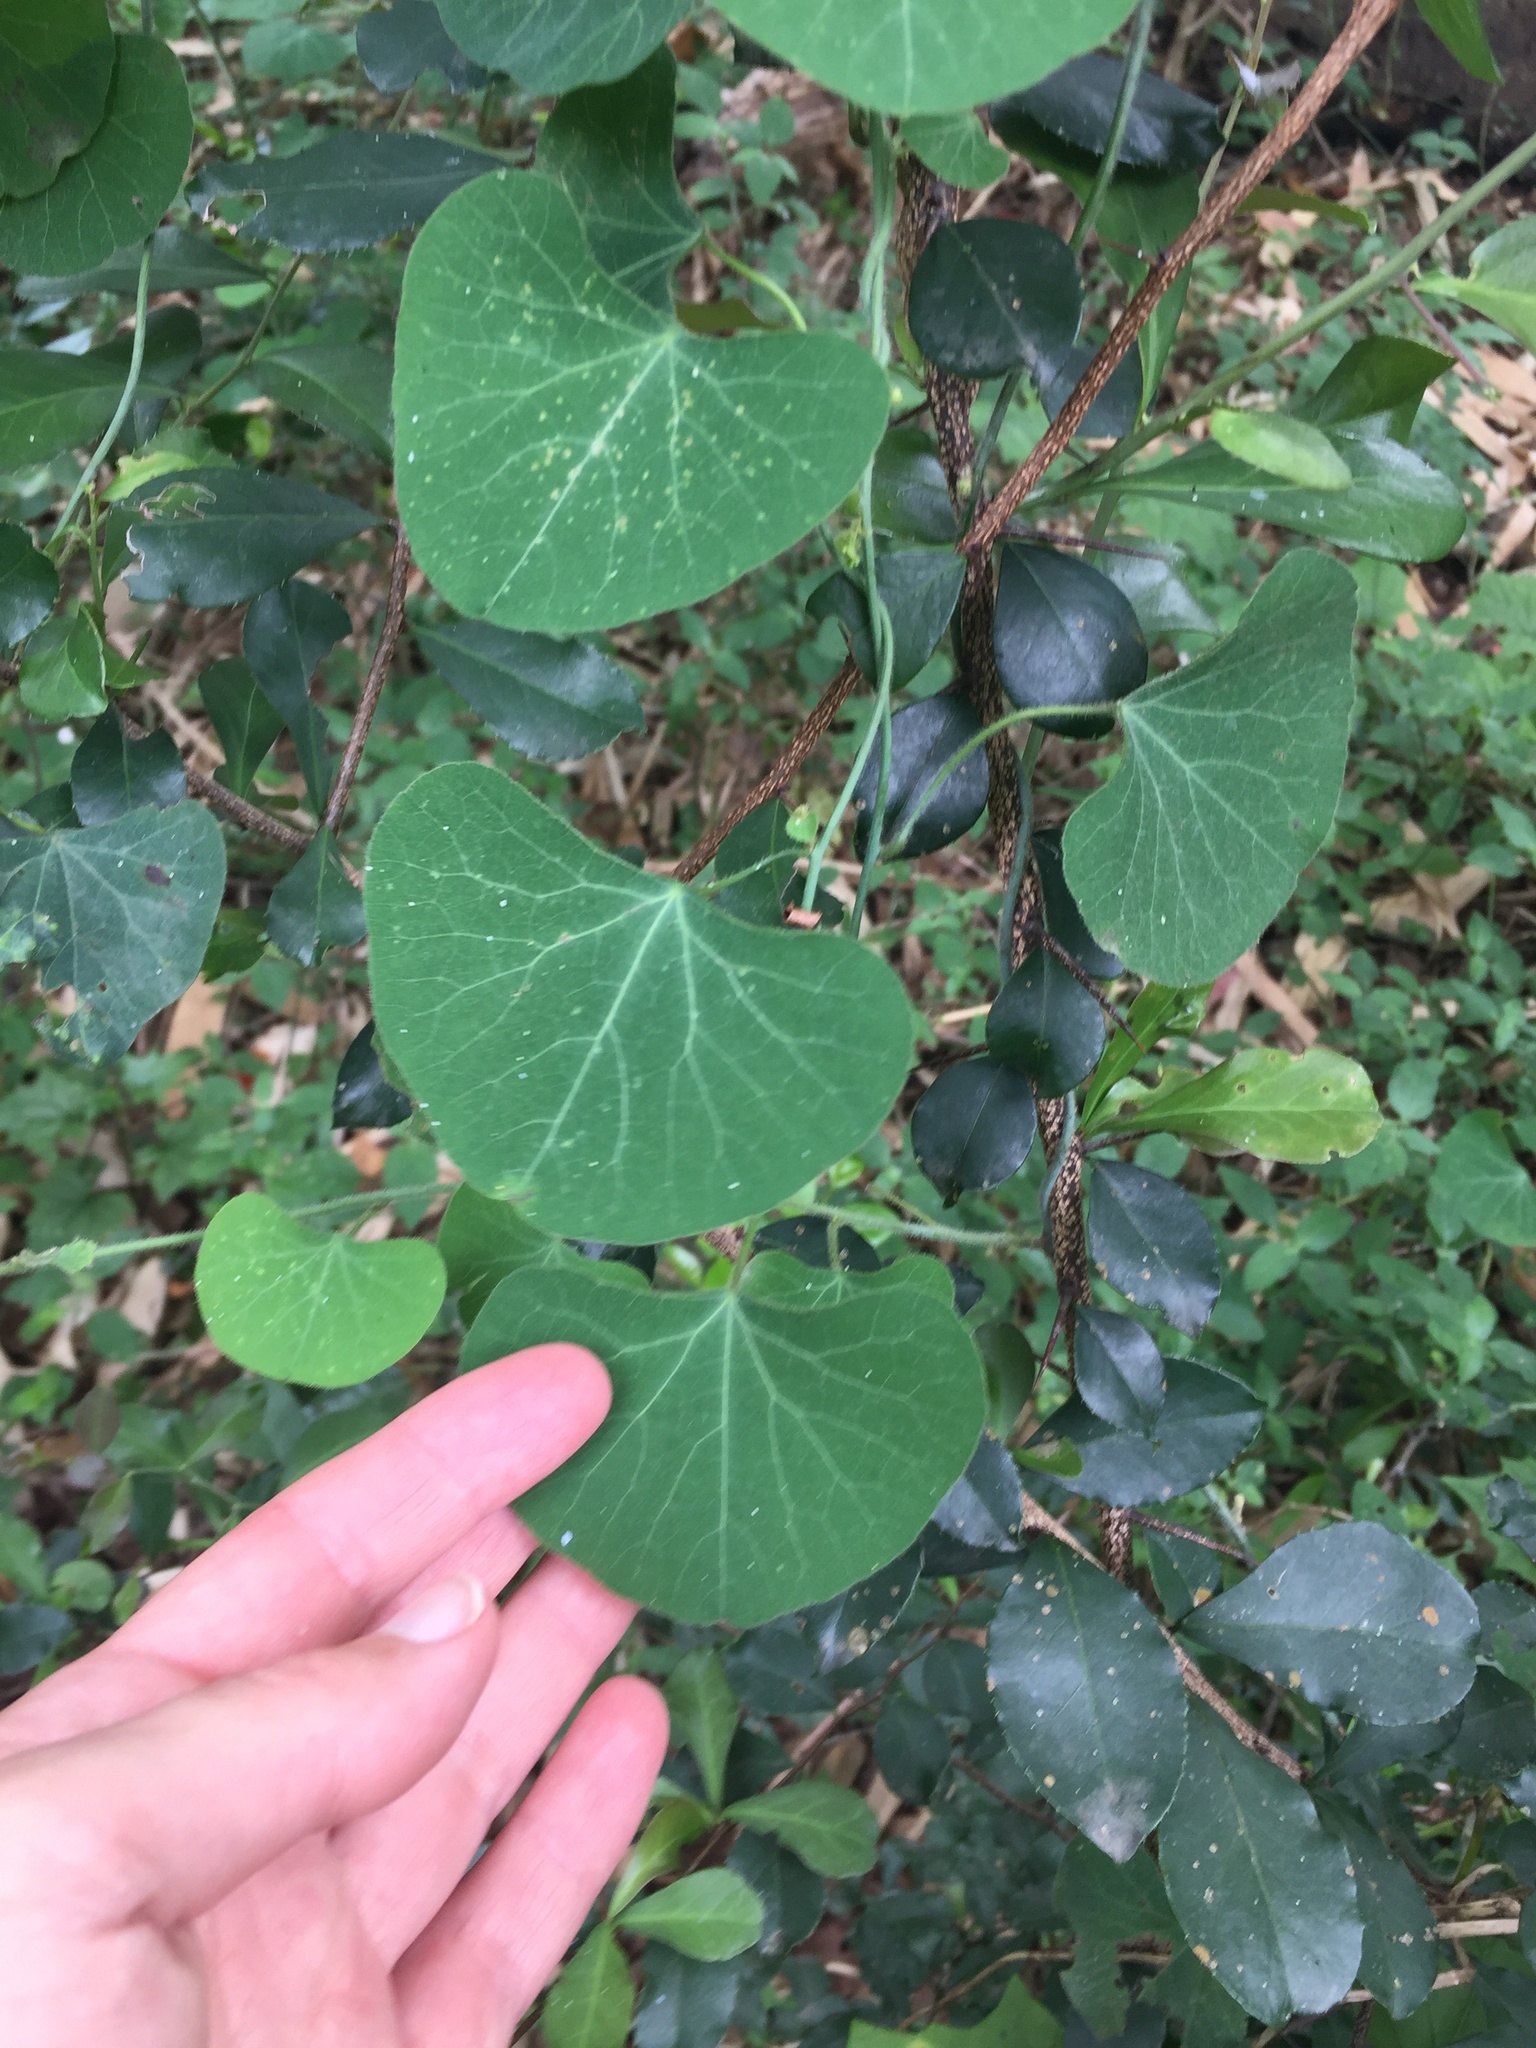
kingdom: Plantae
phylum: Tracheophyta
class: Magnoliopsida
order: Ranunculales
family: Menispermaceae
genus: Cissampelos
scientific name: Cissampelos torulosa
